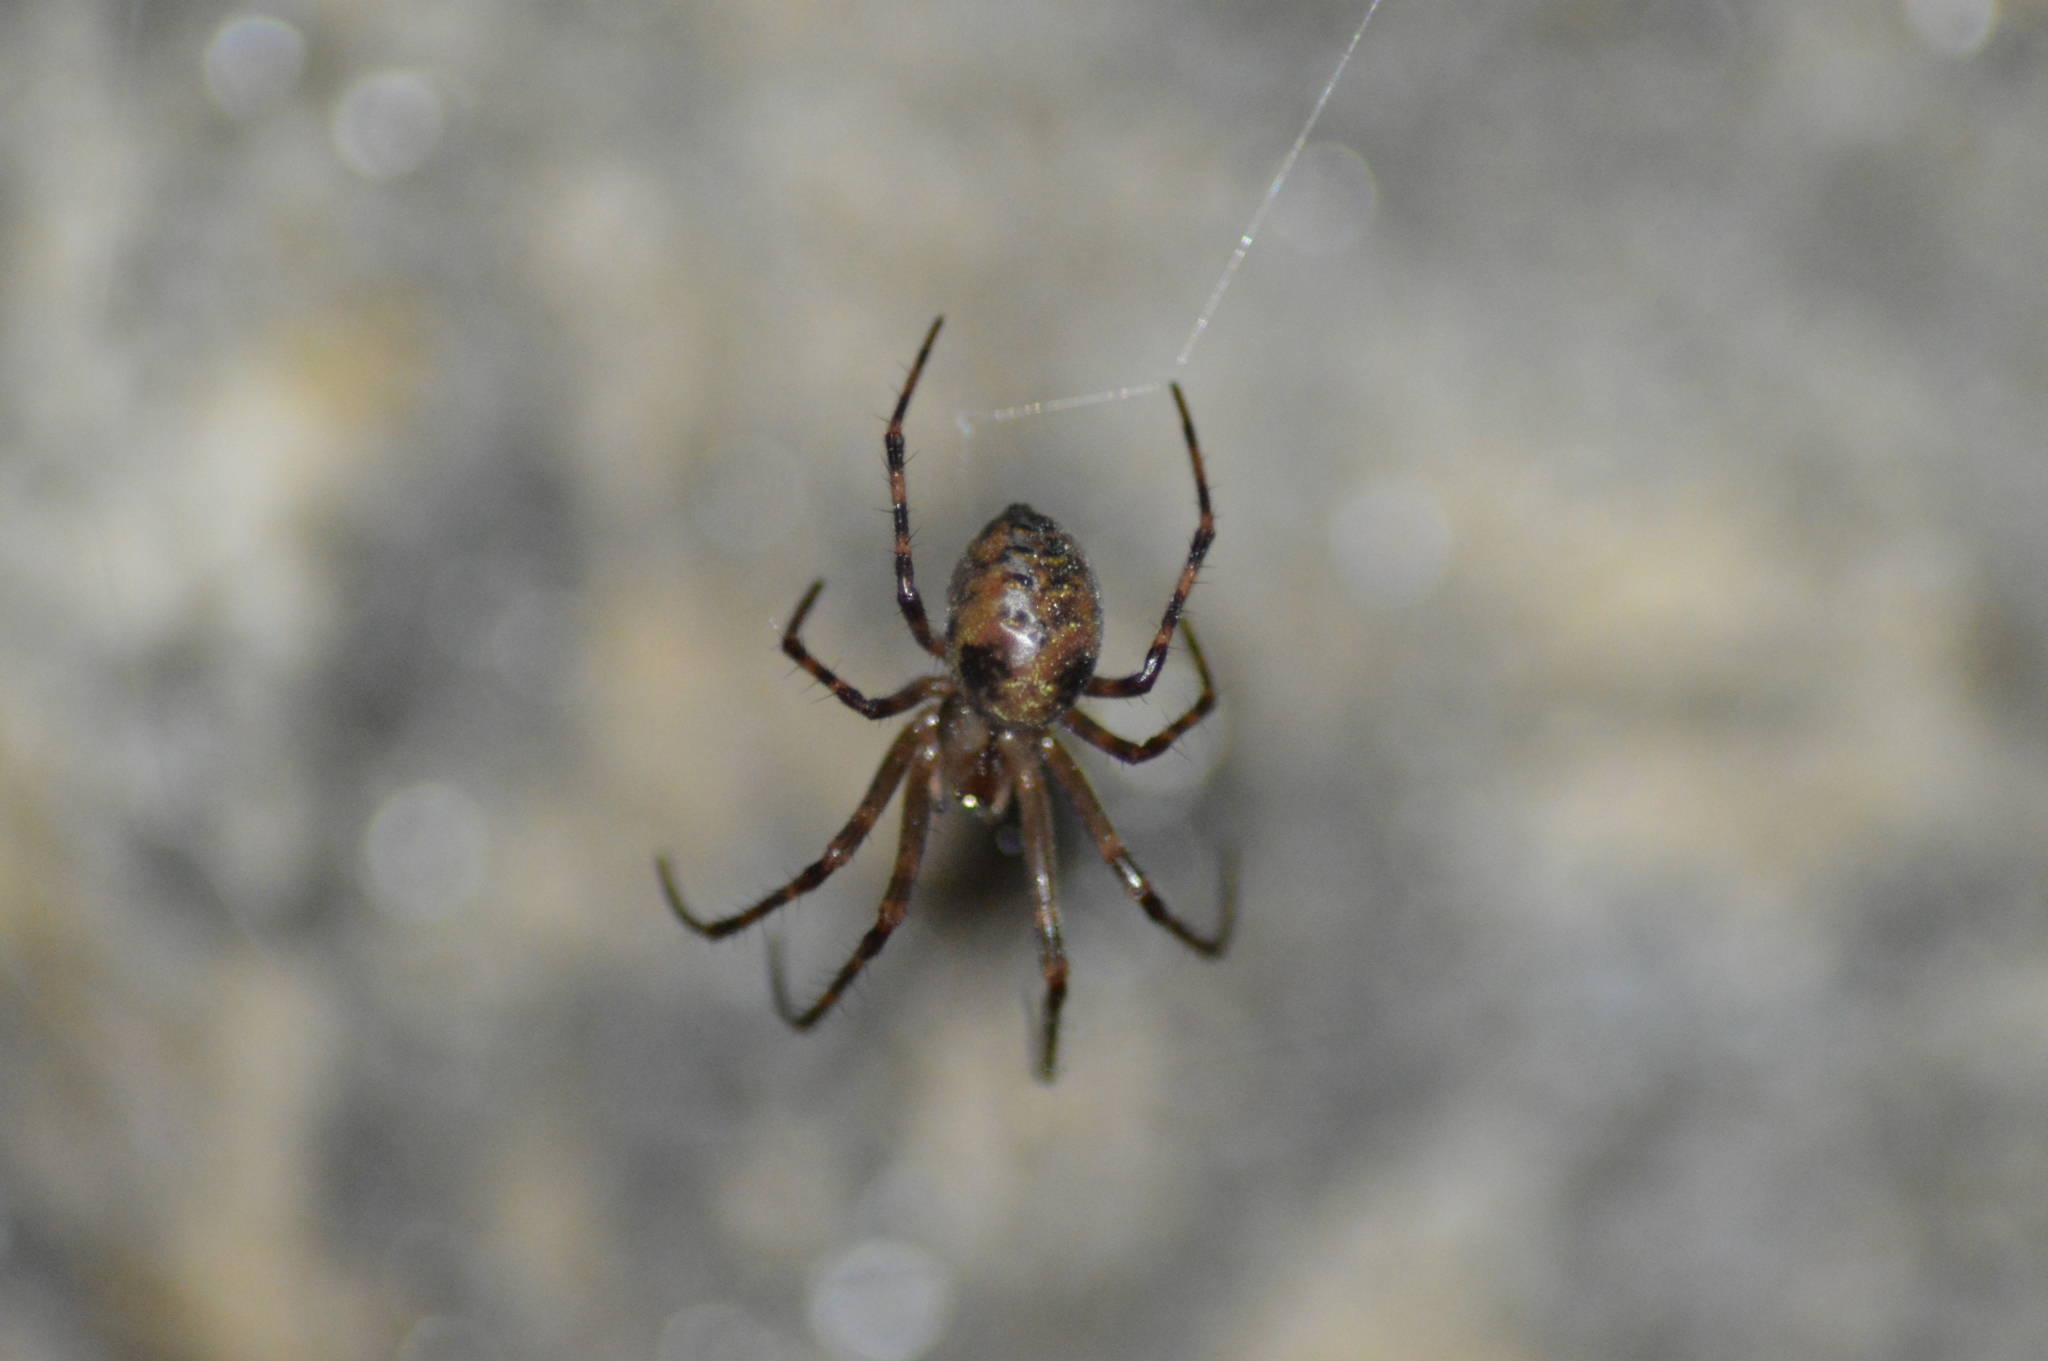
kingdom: Animalia
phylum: Arthropoda
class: Arachnida
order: Araneae
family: Tetragnathidae
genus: Meta
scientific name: Meta menardi
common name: Cave spider
